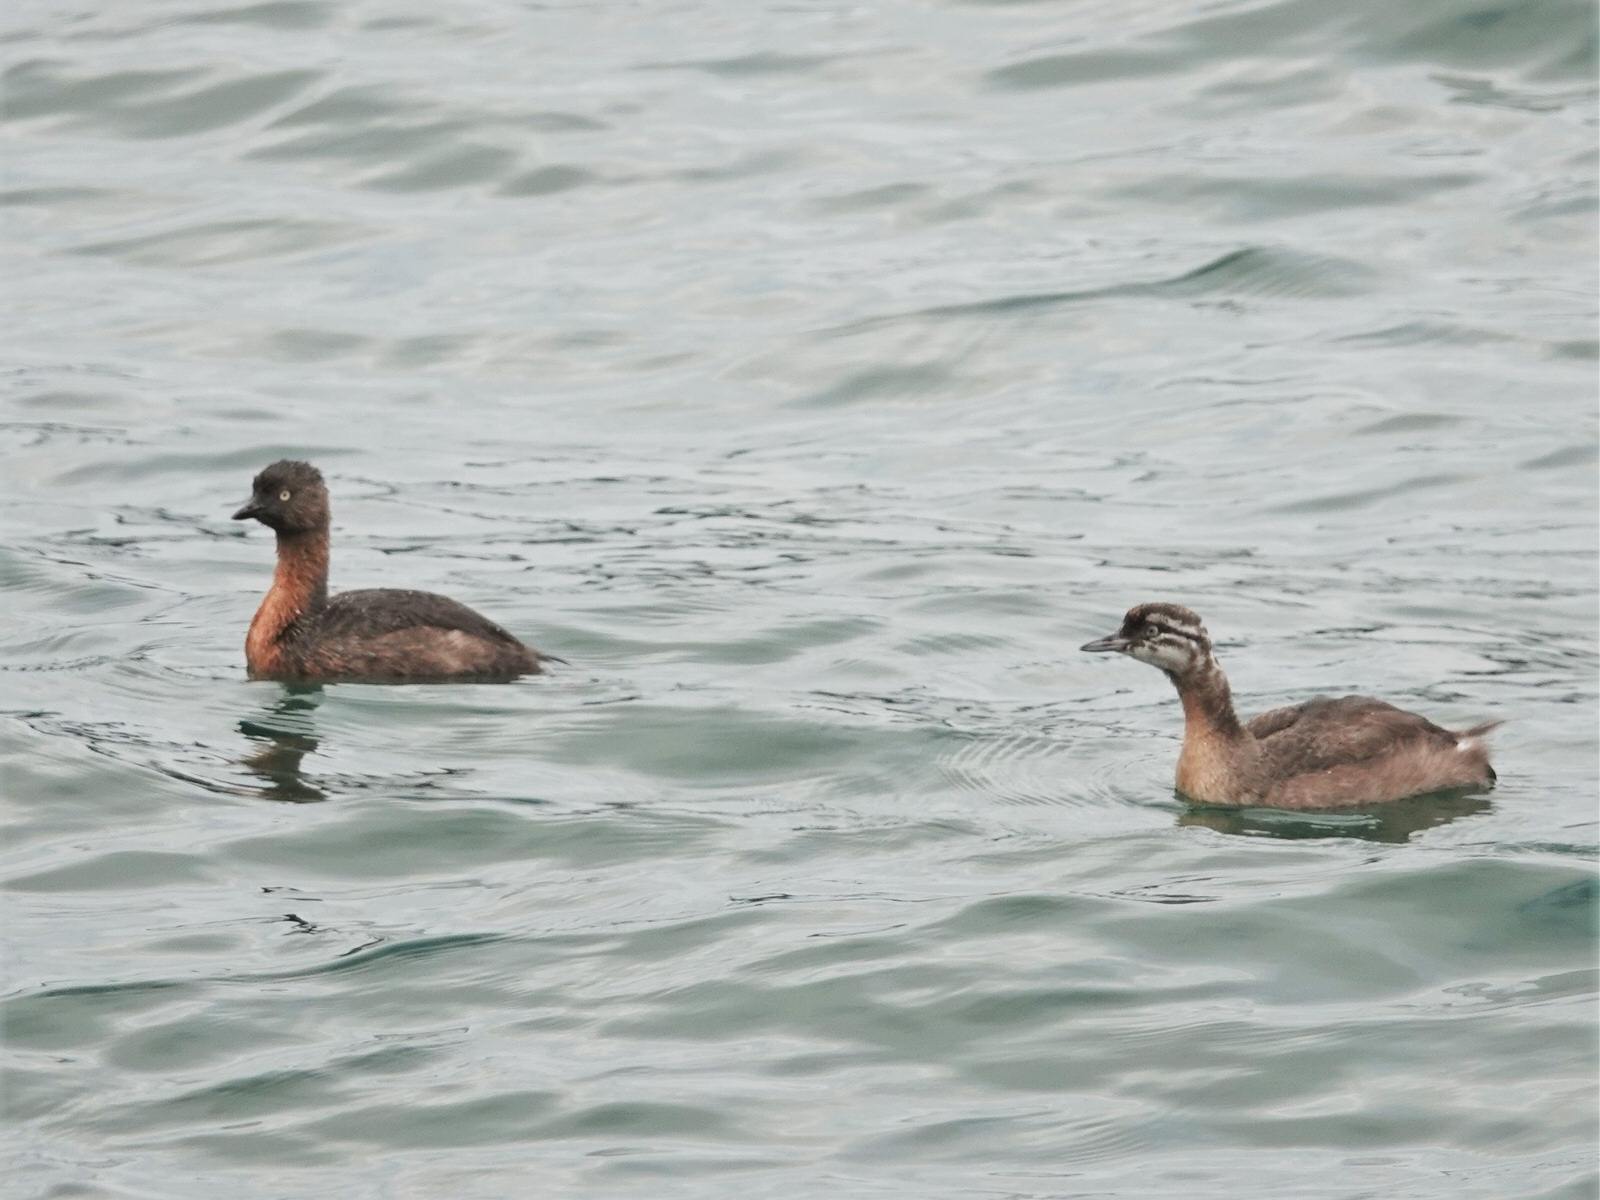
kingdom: Animalia
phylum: Chordata
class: Aves
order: Podicipediformes
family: Podicipedidae
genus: Poliocephalus
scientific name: Poliocephalus rufopectus
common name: New zealand grebe
